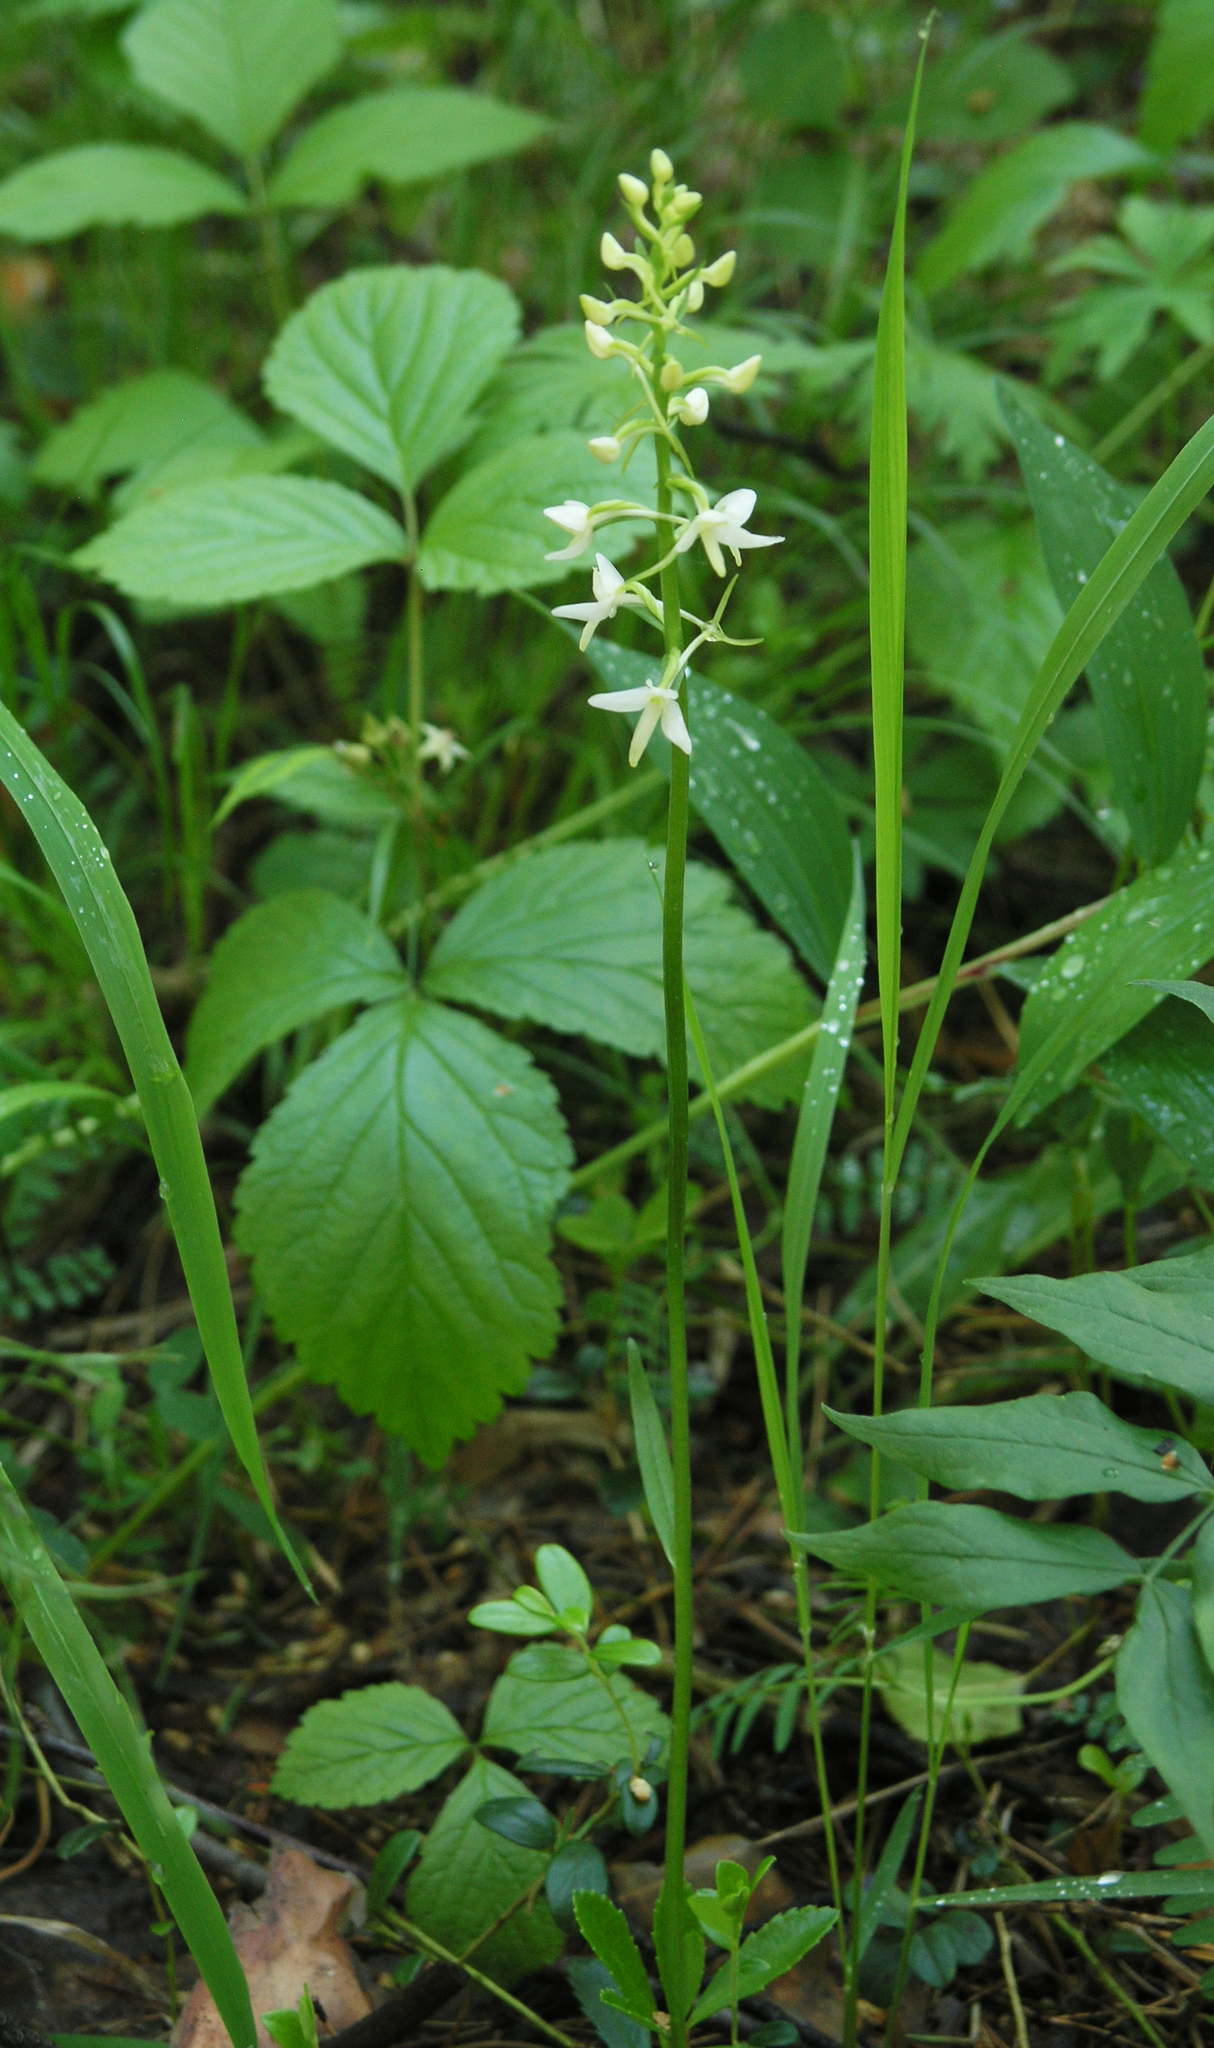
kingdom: Plantae
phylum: Tracheophyta
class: Liliopsida
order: Asparagales
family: Orchidaceae
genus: Platanthera
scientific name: Platanthera bifolia
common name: Lesser butterfly-orchid
